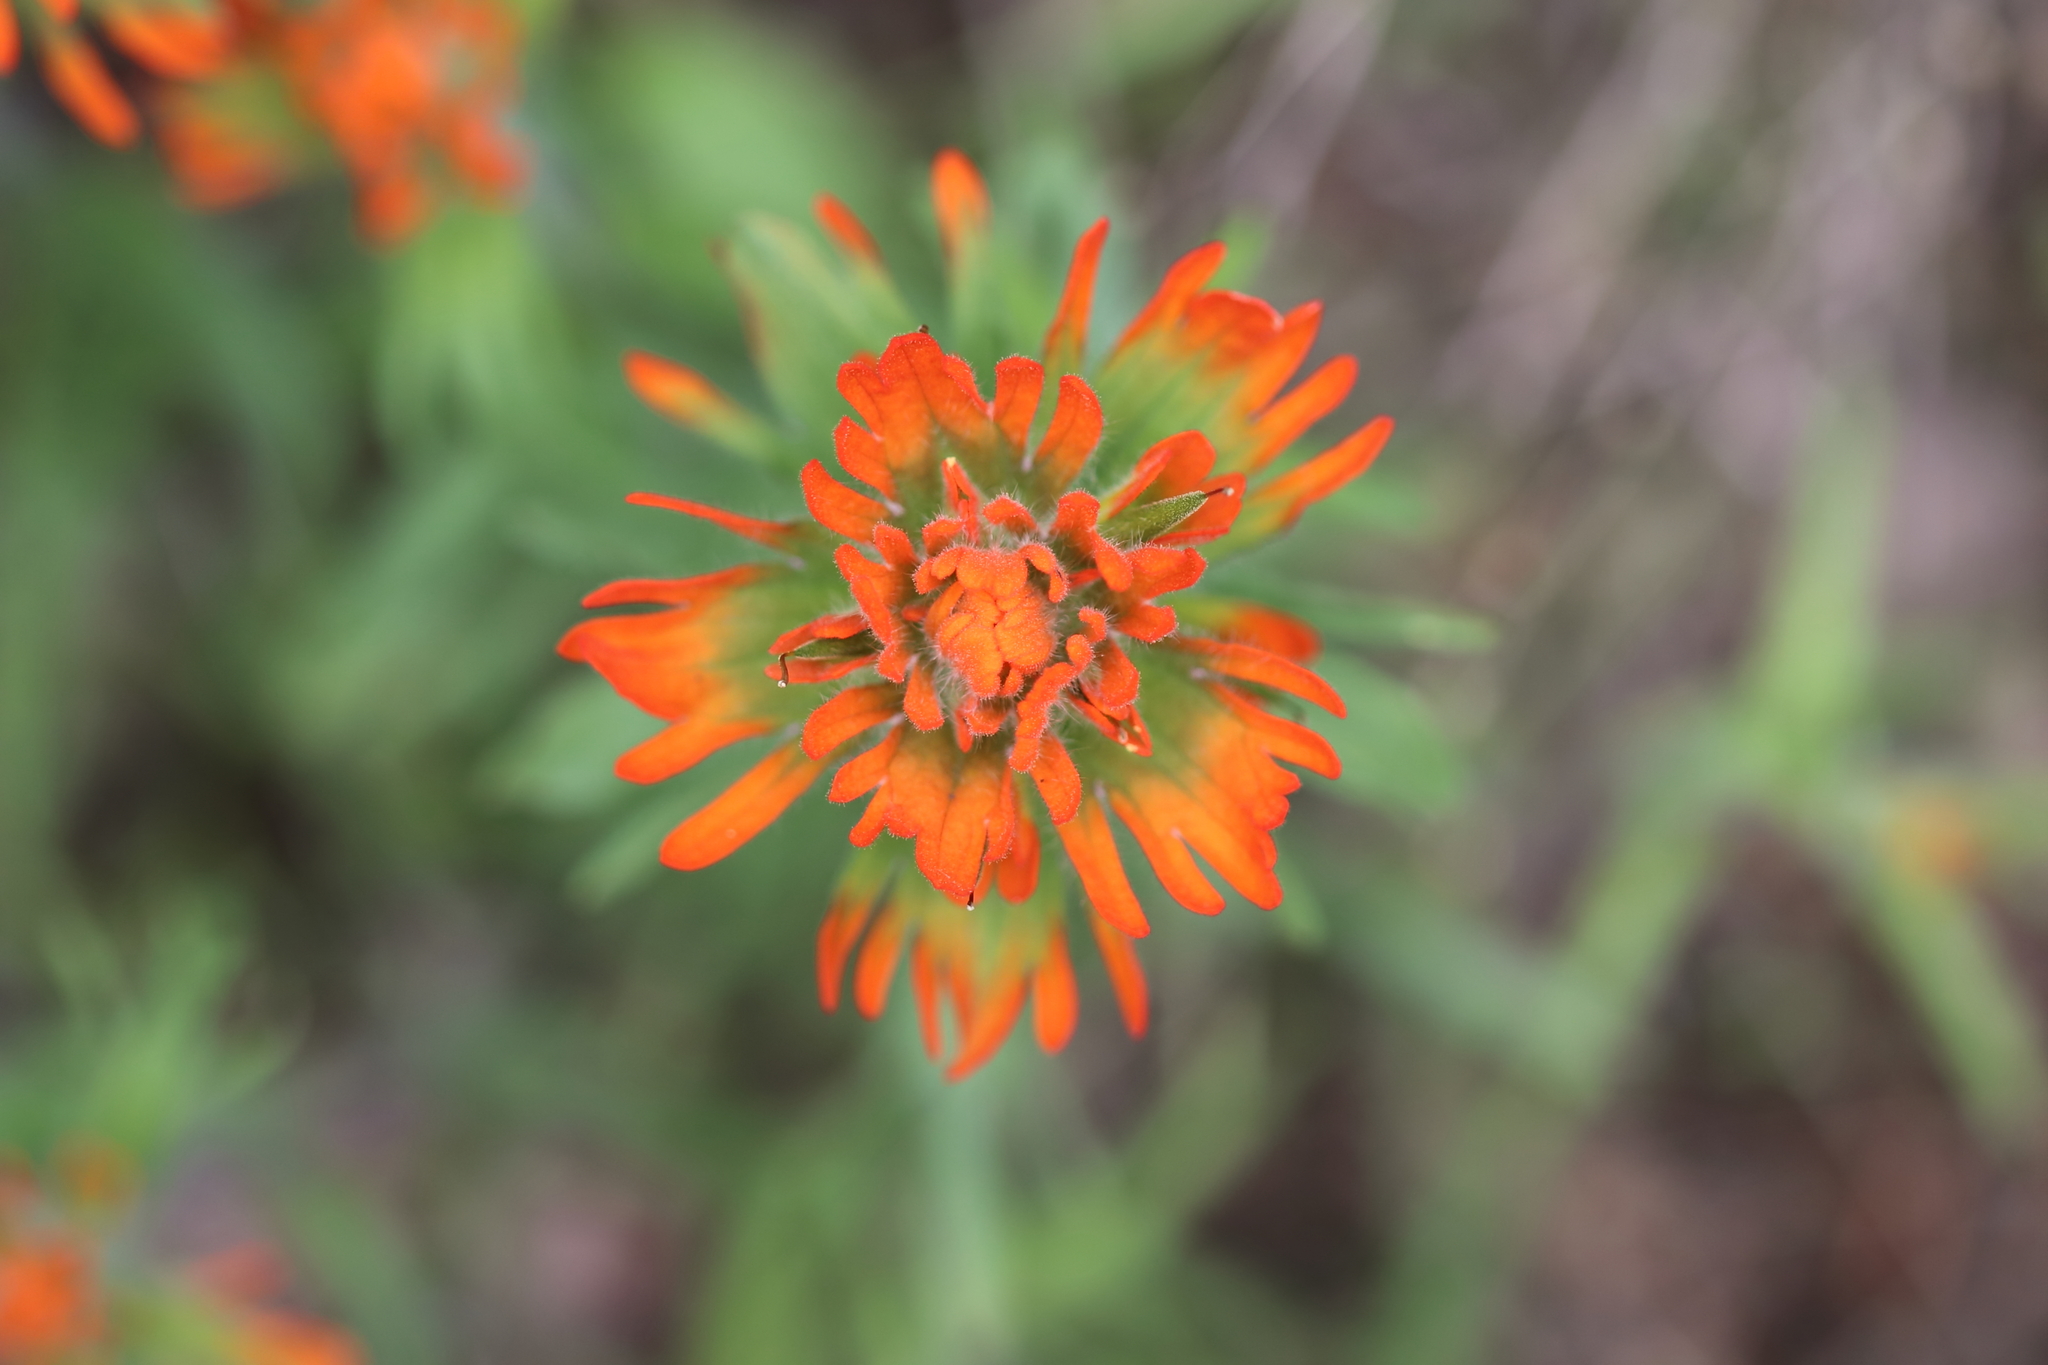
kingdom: Plantae
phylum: Tracheophyta
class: Magnoliopsida
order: Lamiales
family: Orobanchaceae
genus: Castilleja
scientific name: Castilleja hispida
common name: Bristly paintbrush
